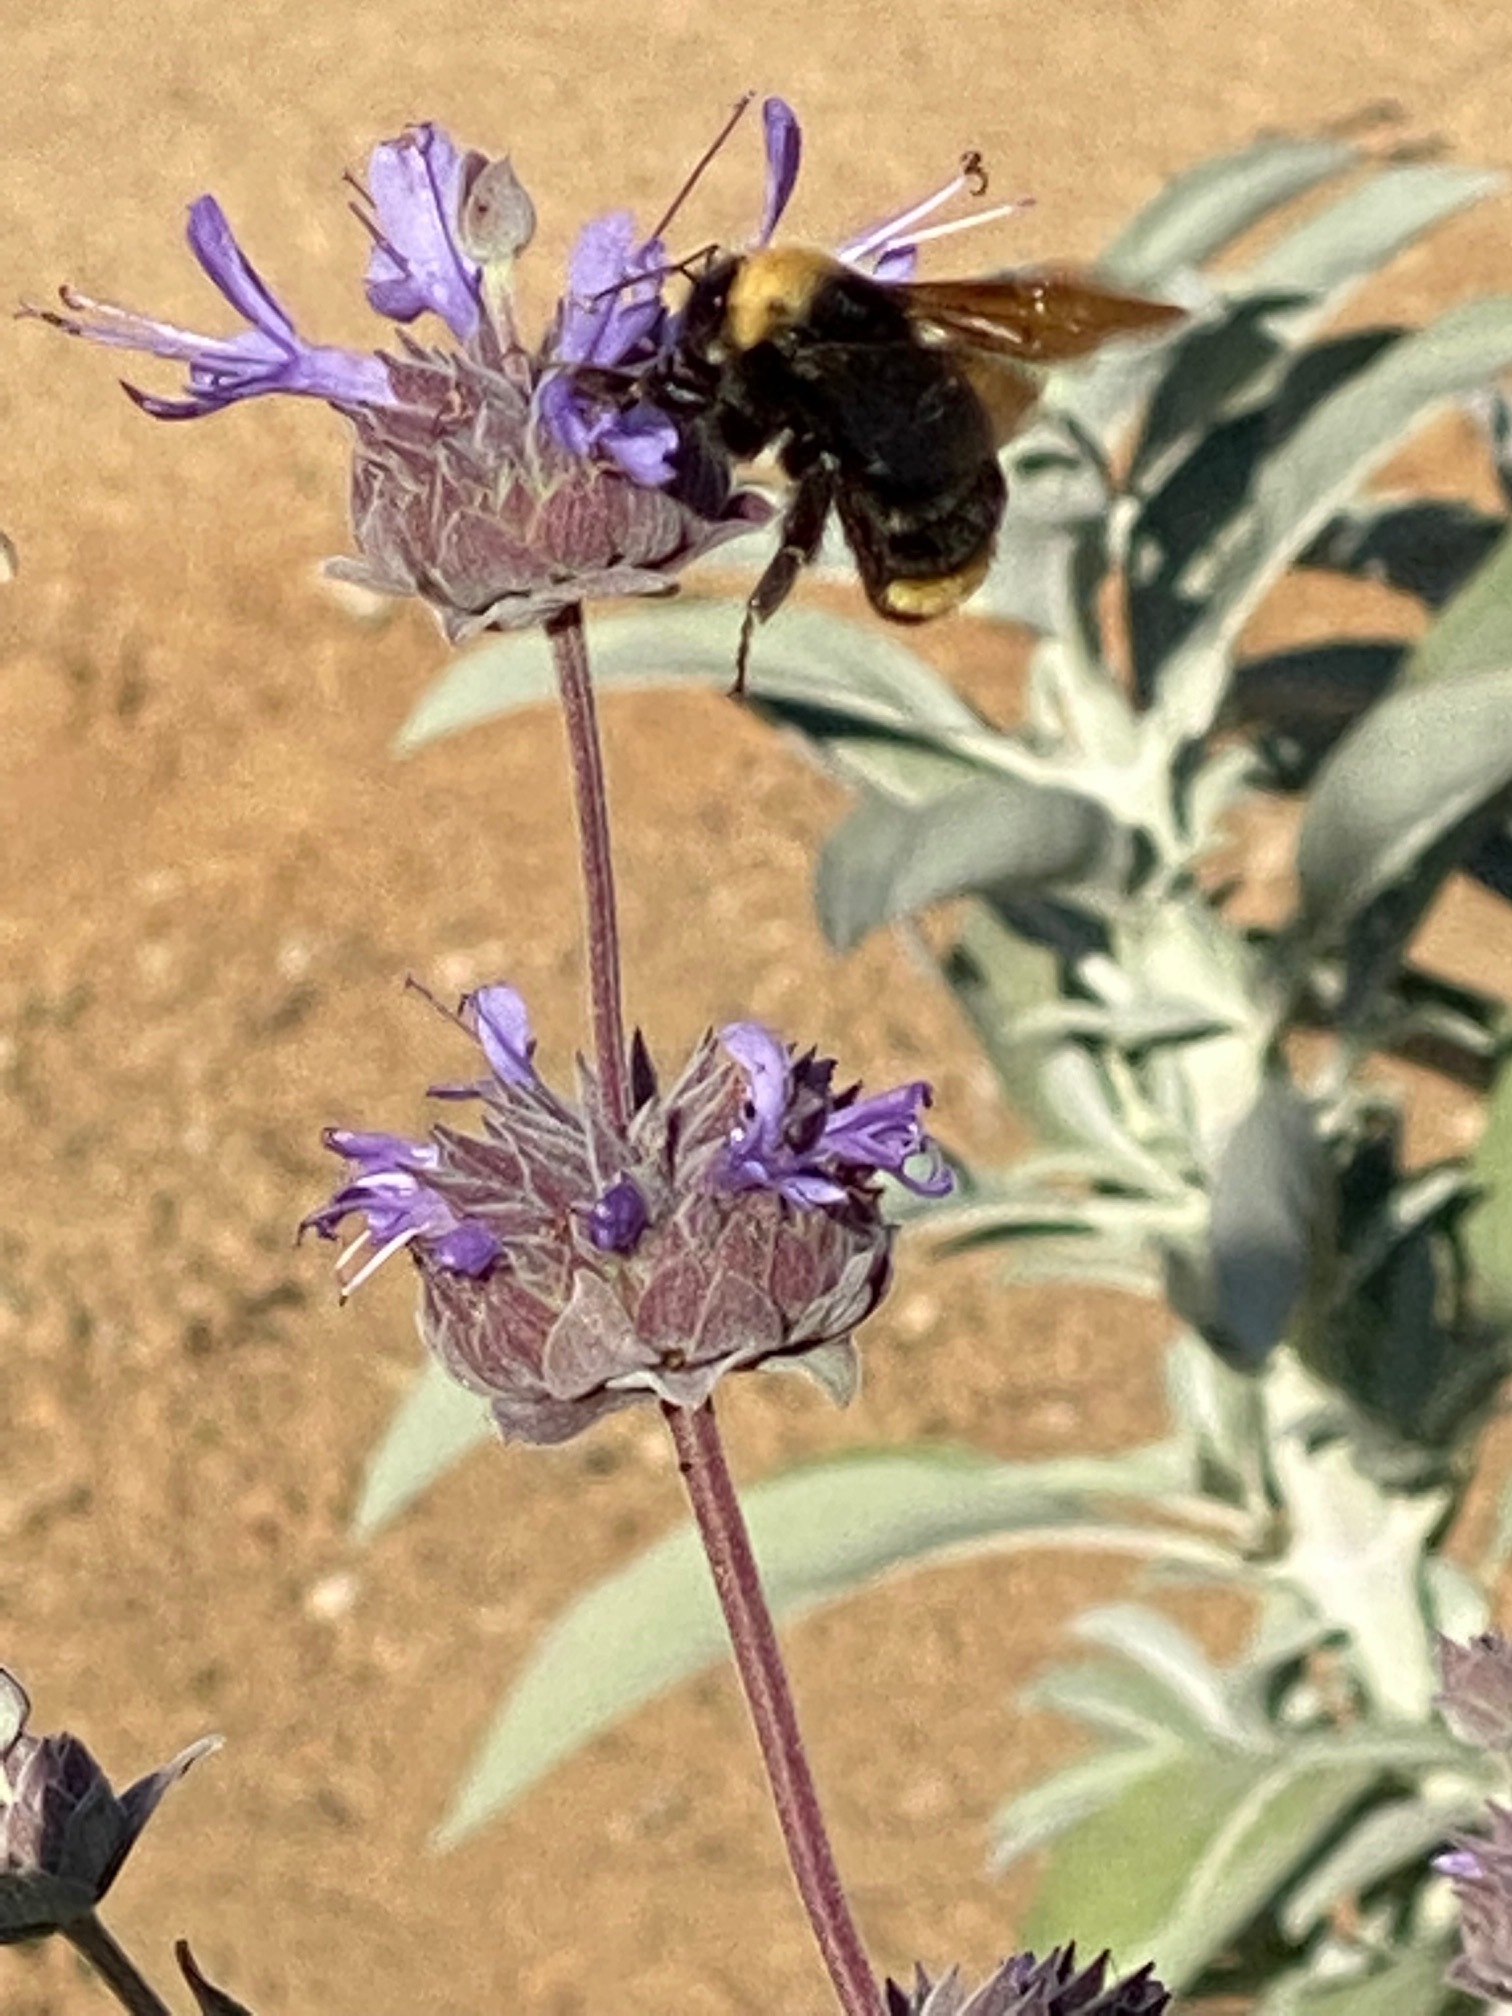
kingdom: Animalia
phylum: Arthropoda
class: Insecta
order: Hymenoptera
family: Apidae
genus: Bombus
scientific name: Bombus californicus
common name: California bumble bee
